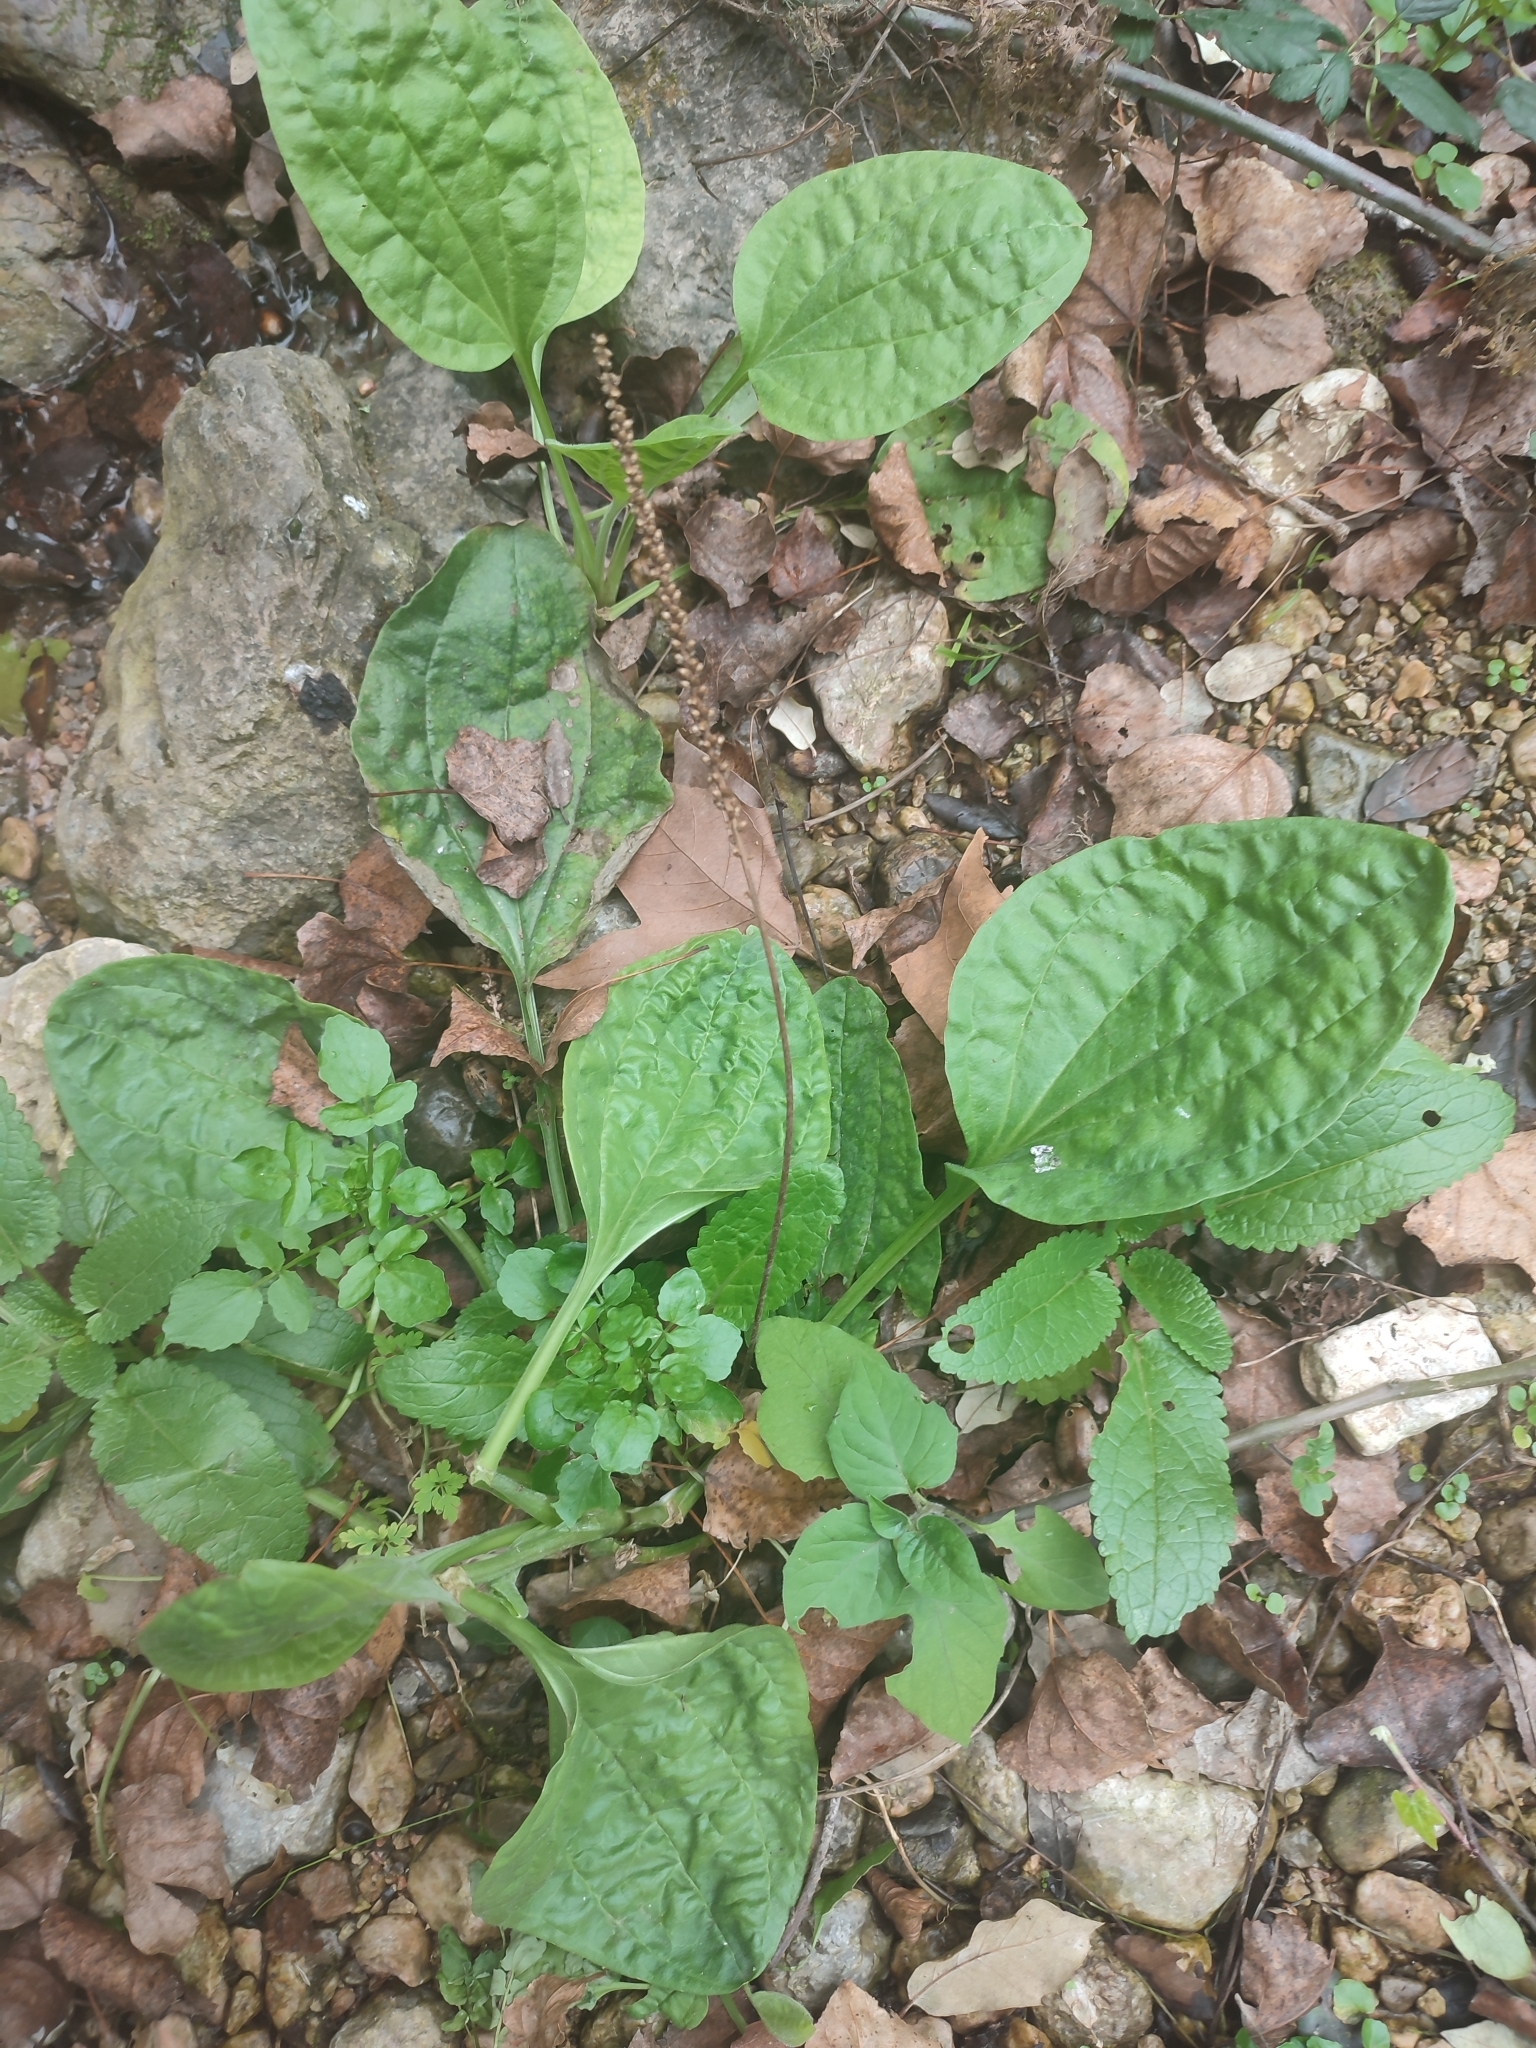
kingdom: Plantae
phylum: Tracheophyta
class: Magnoliopsida
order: Lamiales
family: Plantaginaceae
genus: Plantago
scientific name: Plantago major
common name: Common plantain
